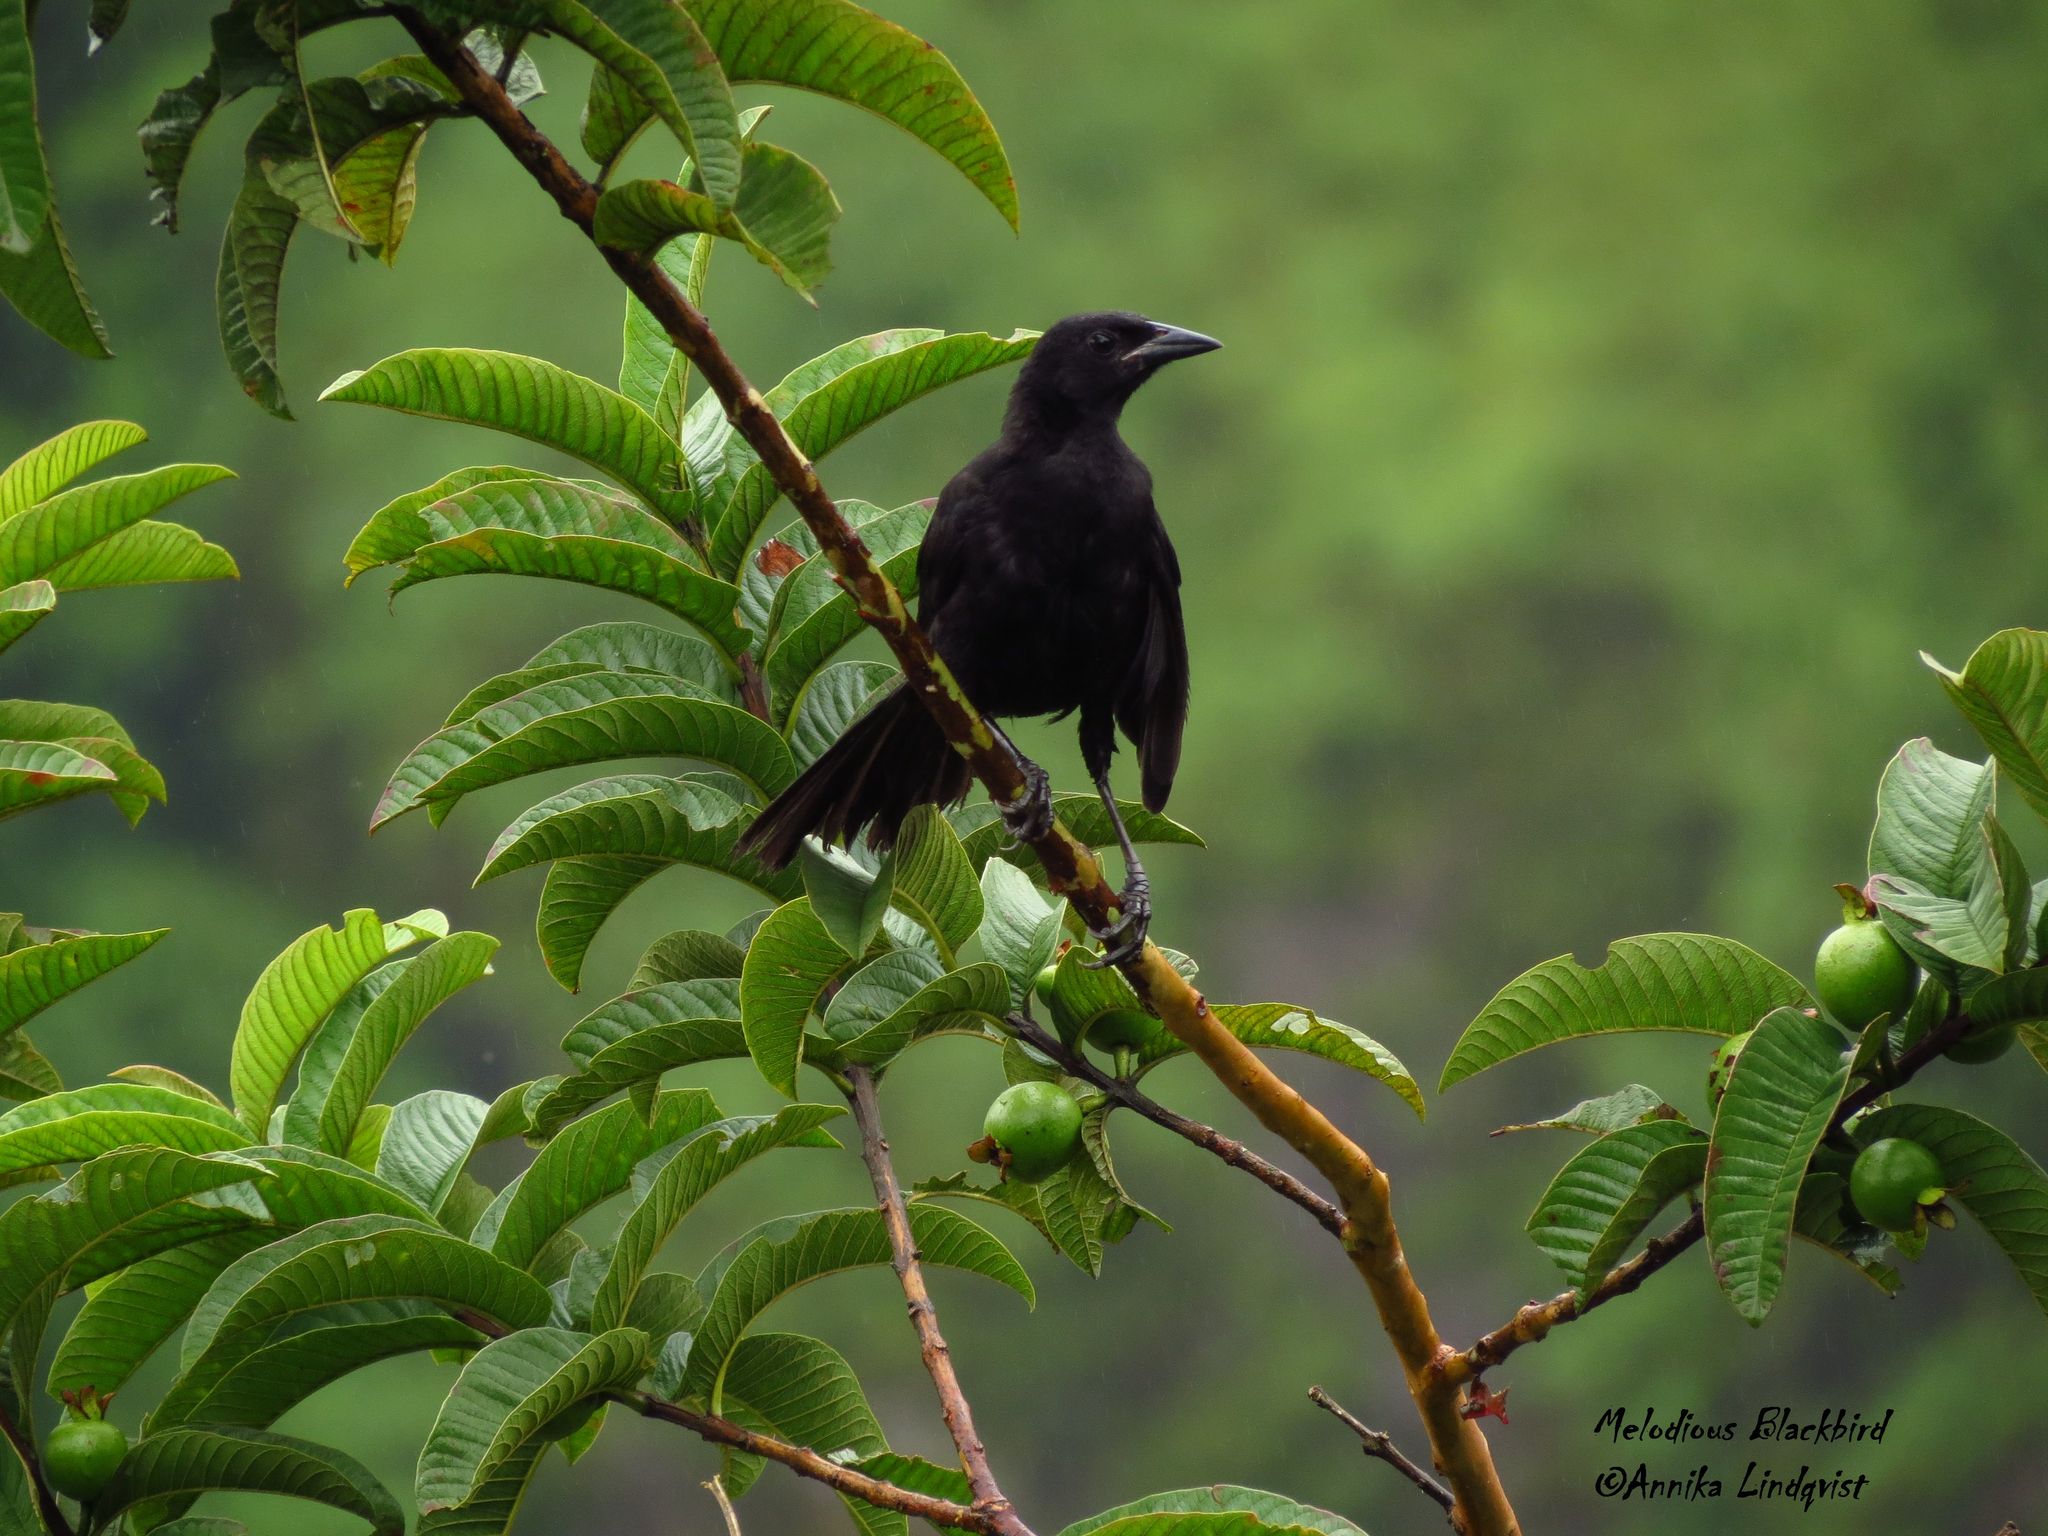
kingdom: Animalia
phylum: Chordata
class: Aves
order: Passeriformes
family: Icteridae
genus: Dives
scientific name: Dives dives
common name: Melodious blackbird
